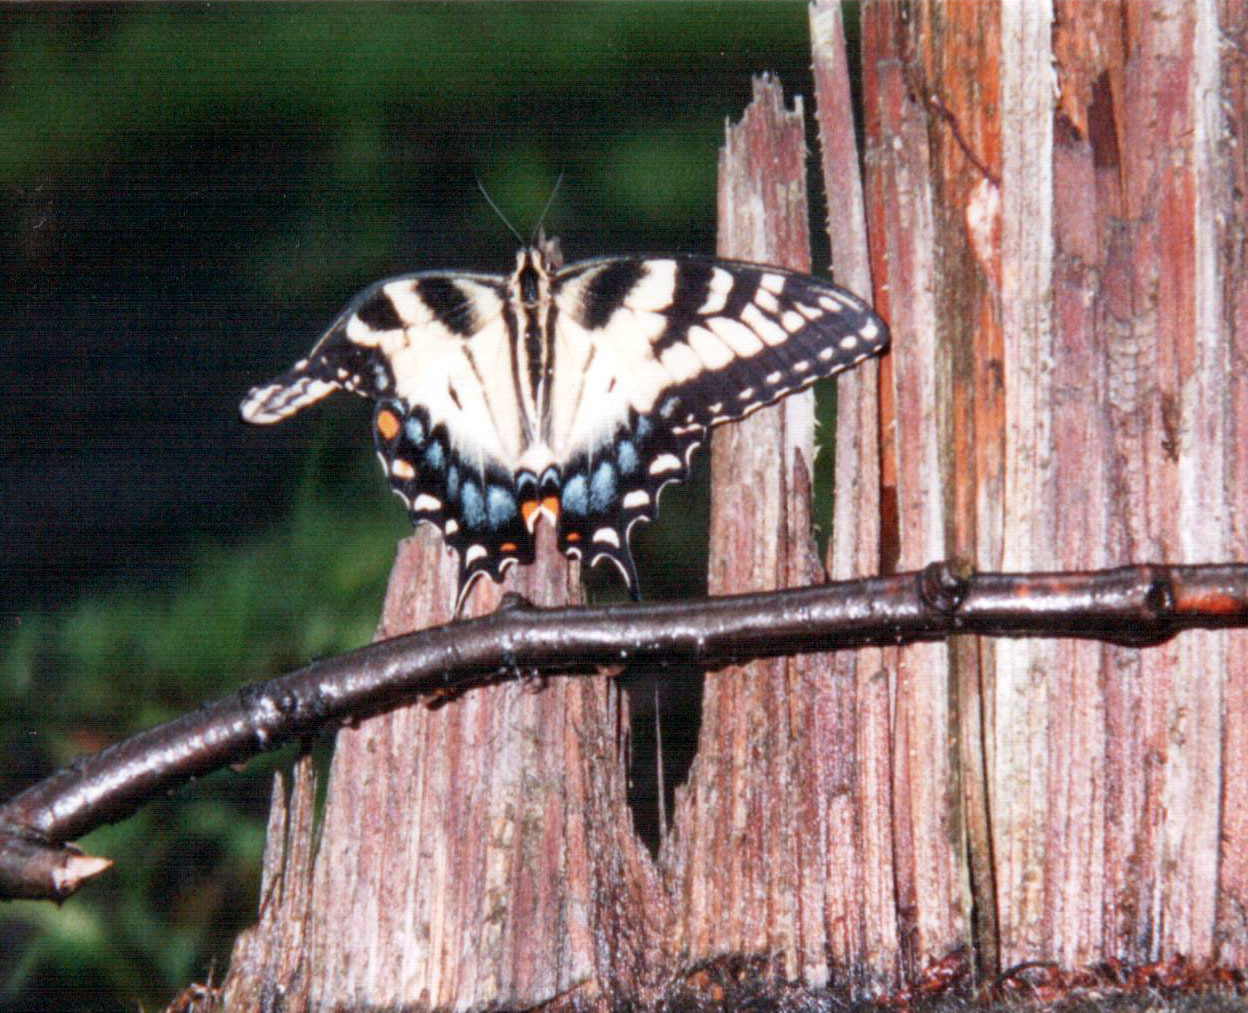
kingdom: Animalia
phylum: Arthropoda
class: Insecta
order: Lepidoptera
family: Papilionidae
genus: Papilio
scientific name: Papilio glaucus
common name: Tiger swallowtail
